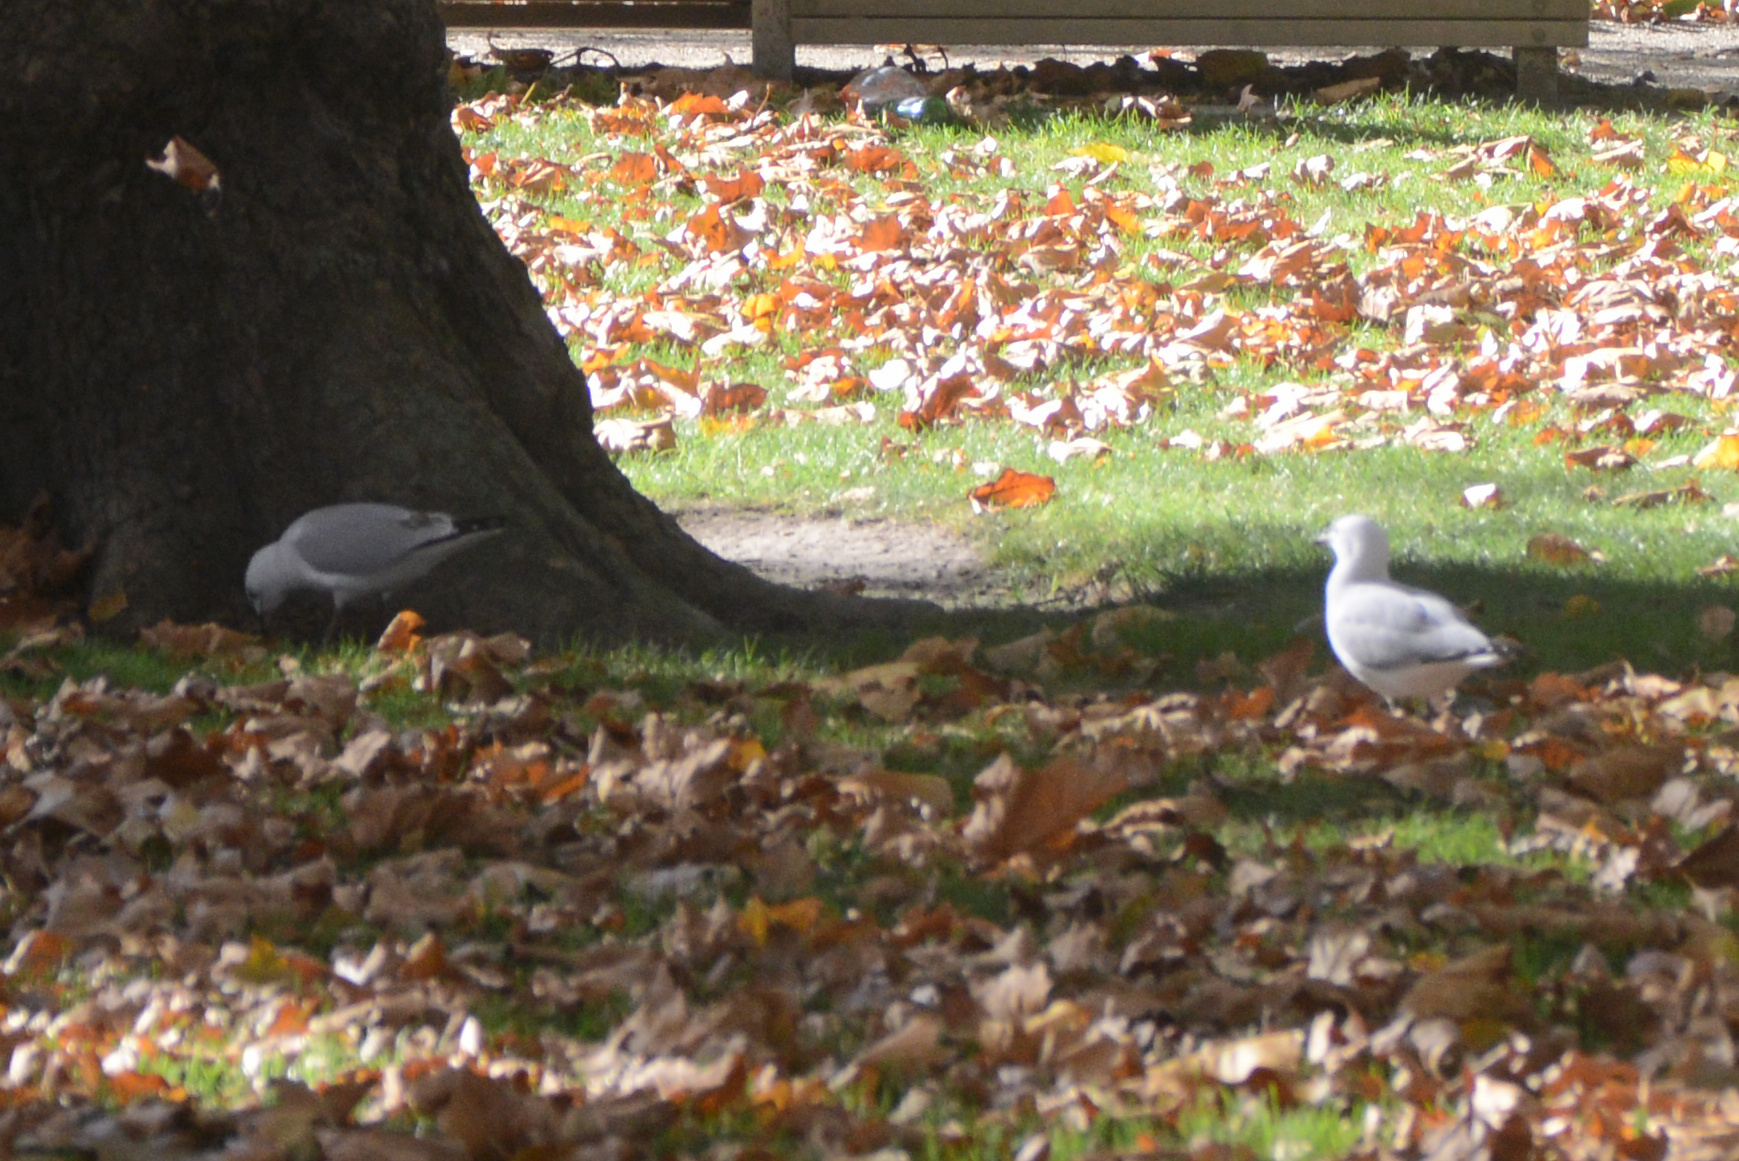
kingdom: Animalia
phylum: Chordata
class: Aves
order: Charadriiformes
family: Laridae
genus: Chroicocephalus
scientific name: Chroicocephalus novaehollandiae
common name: Silver gull
